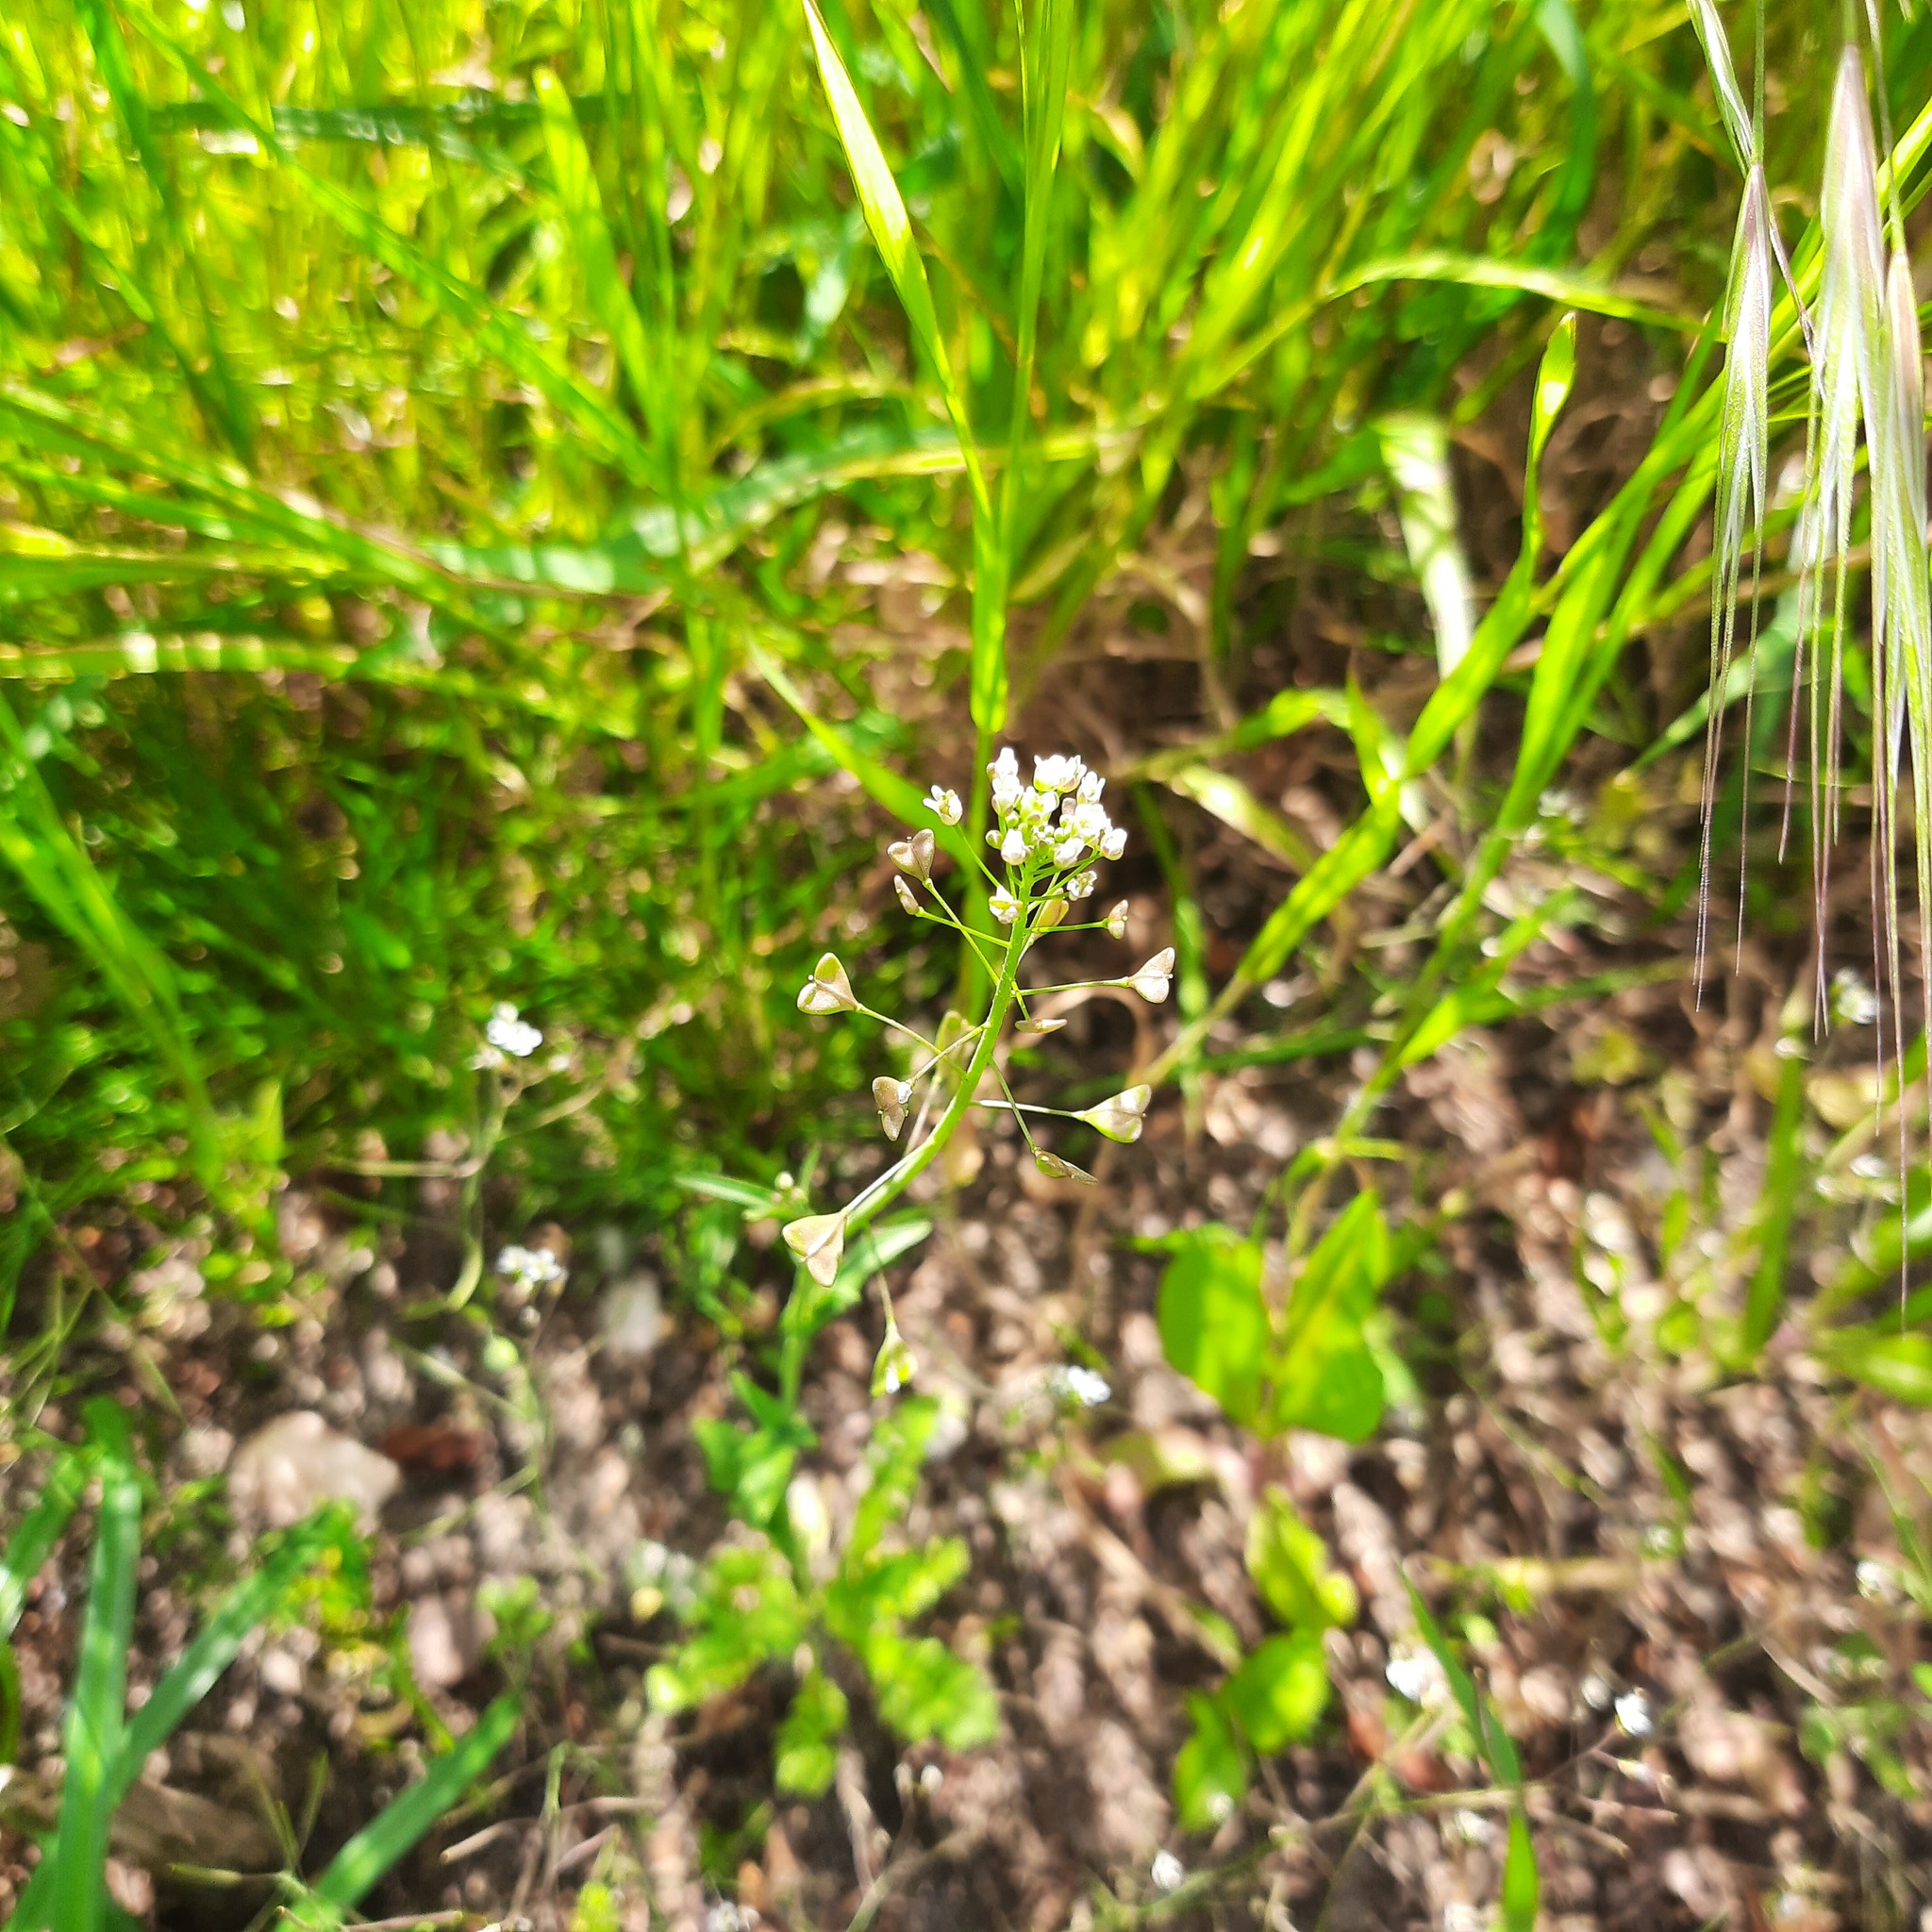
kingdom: Plantae
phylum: Tracheophyta
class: Magnoliopsida
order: Brassicales
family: Brassicaceae
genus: Capsella
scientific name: Capsella bursa-pastoris
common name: Shepherd's purse
